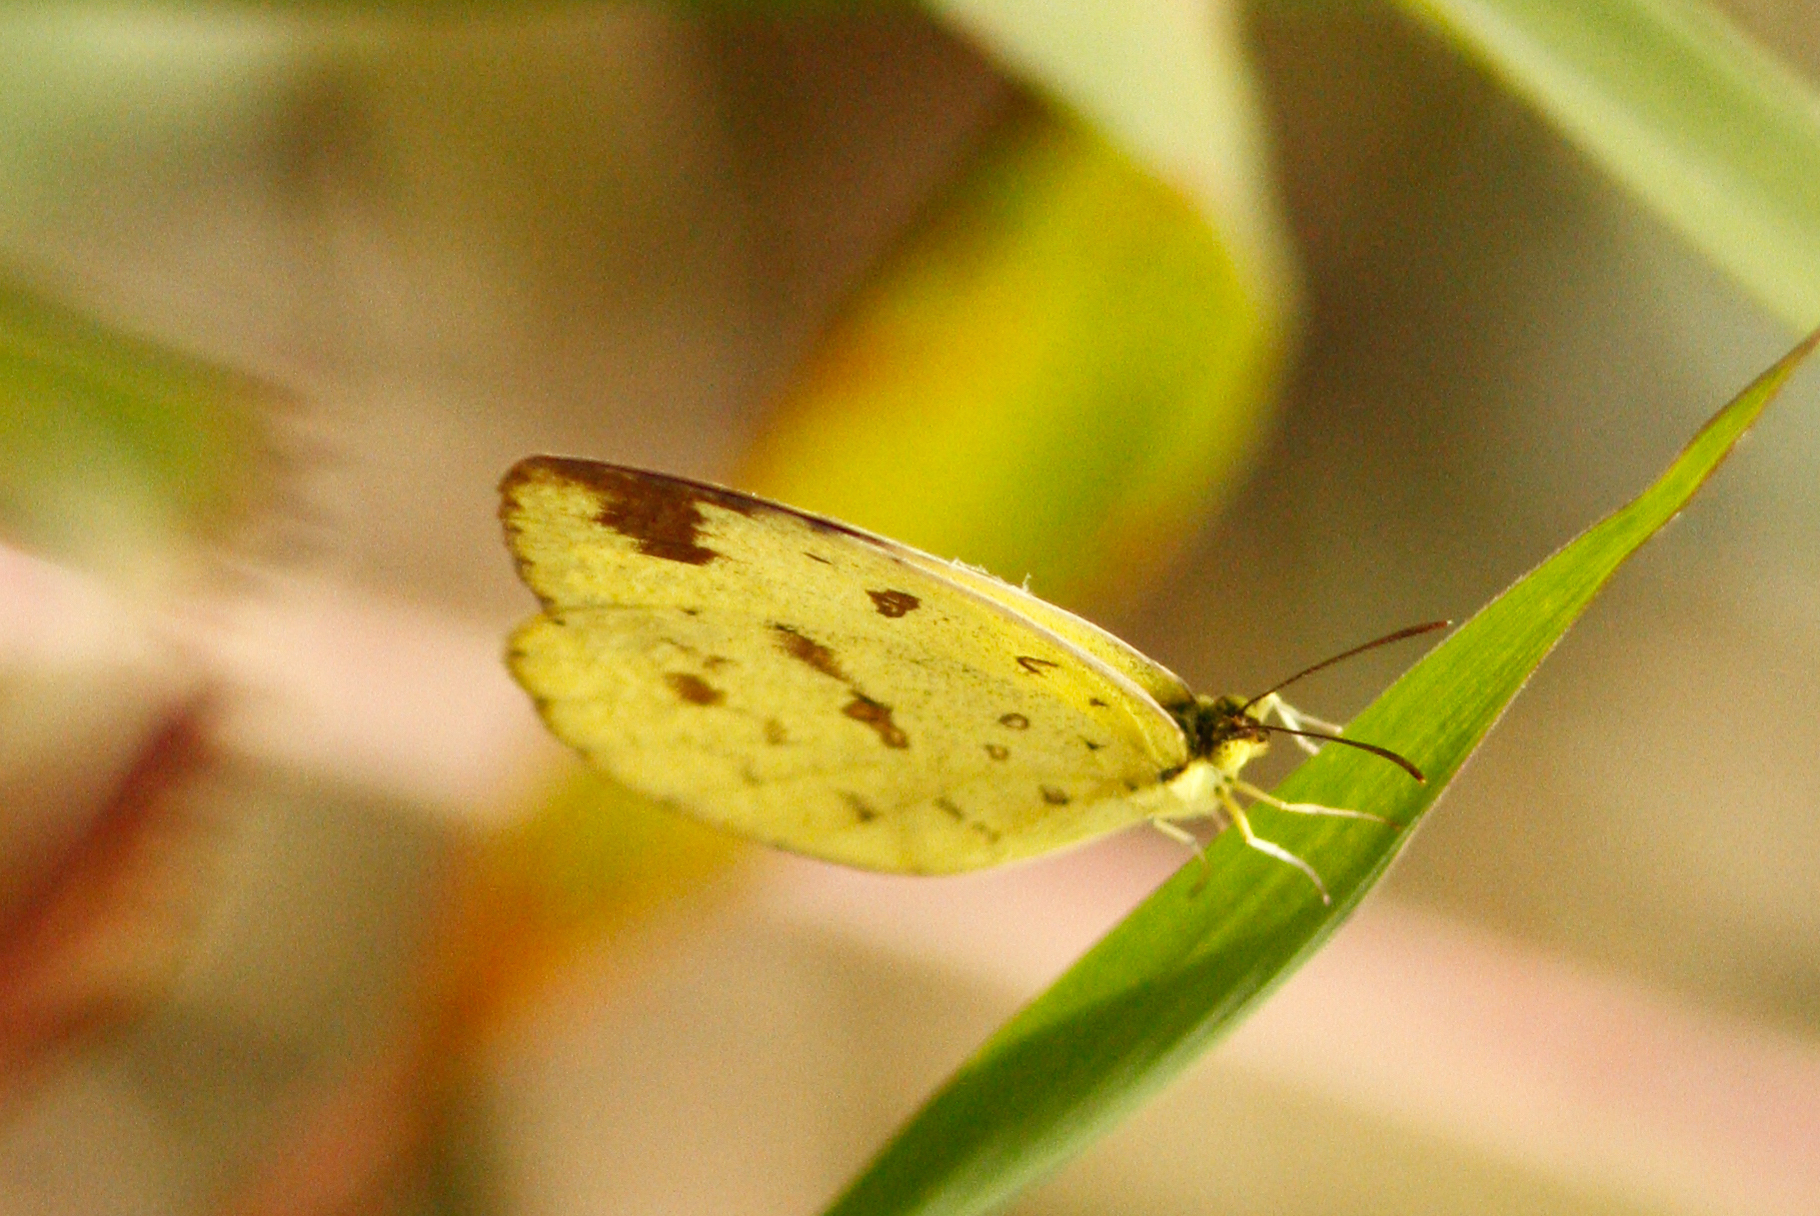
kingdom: Animalia
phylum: Arthropoda
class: Insecta
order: Lepidoptera
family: Pieridae
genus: Eurema
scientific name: Eurema hecabe
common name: Pale grass yellow
